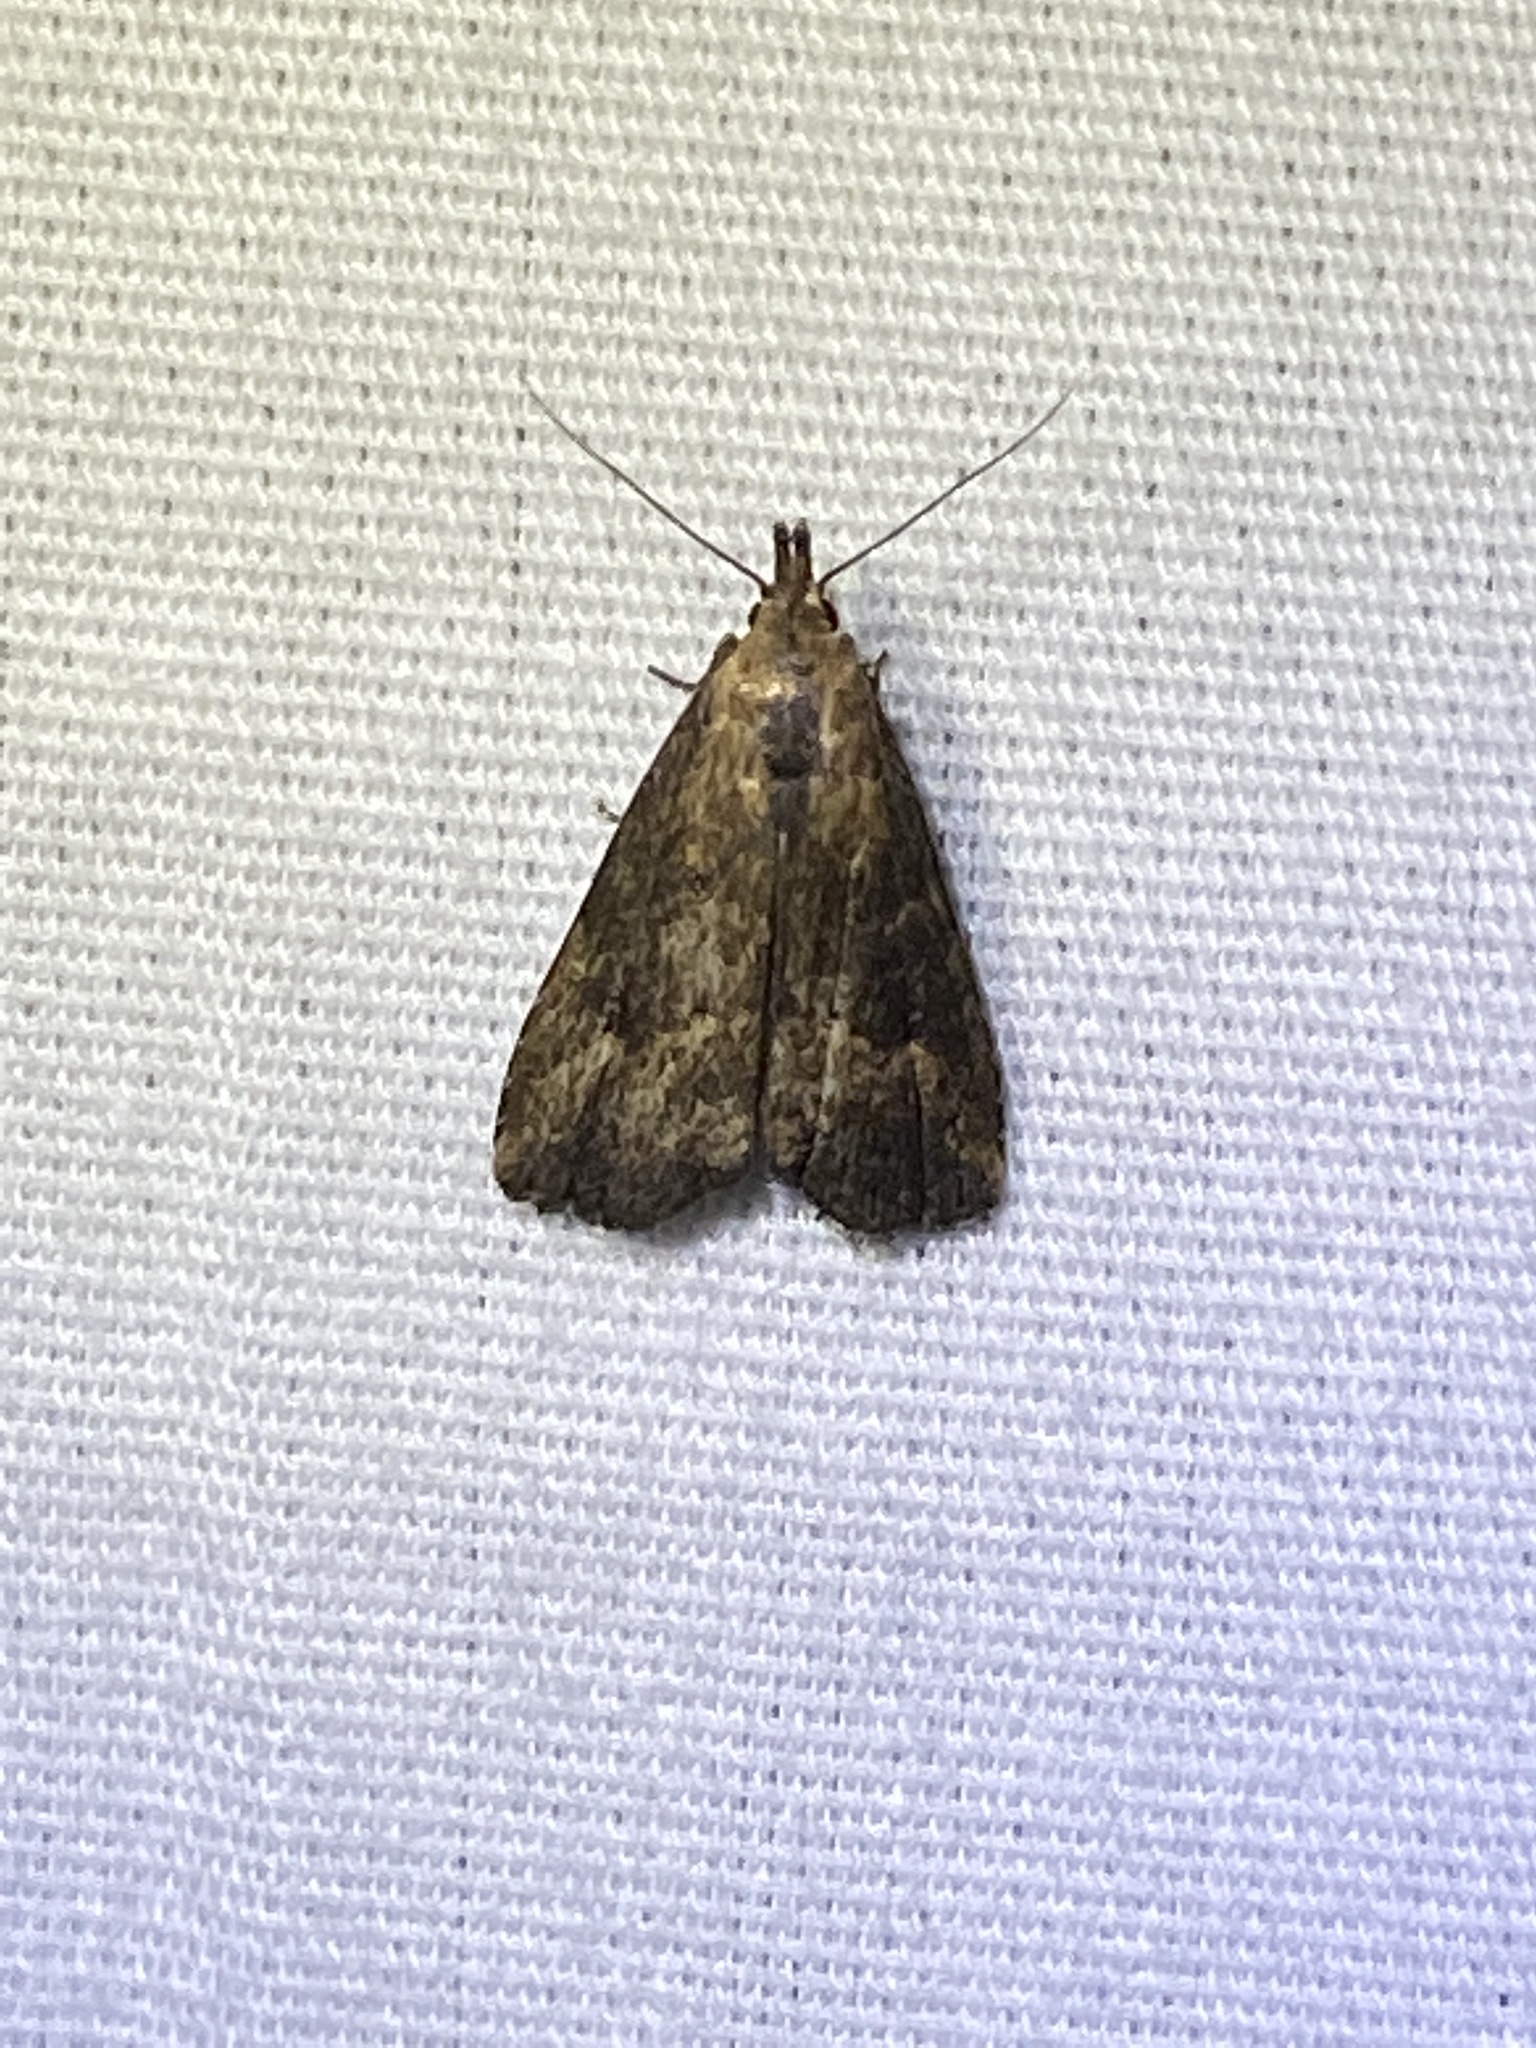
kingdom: Animalia
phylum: Arthropoda
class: Insecta
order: Lepidoptera
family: Erebidae
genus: Schrankia
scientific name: Schrankia
